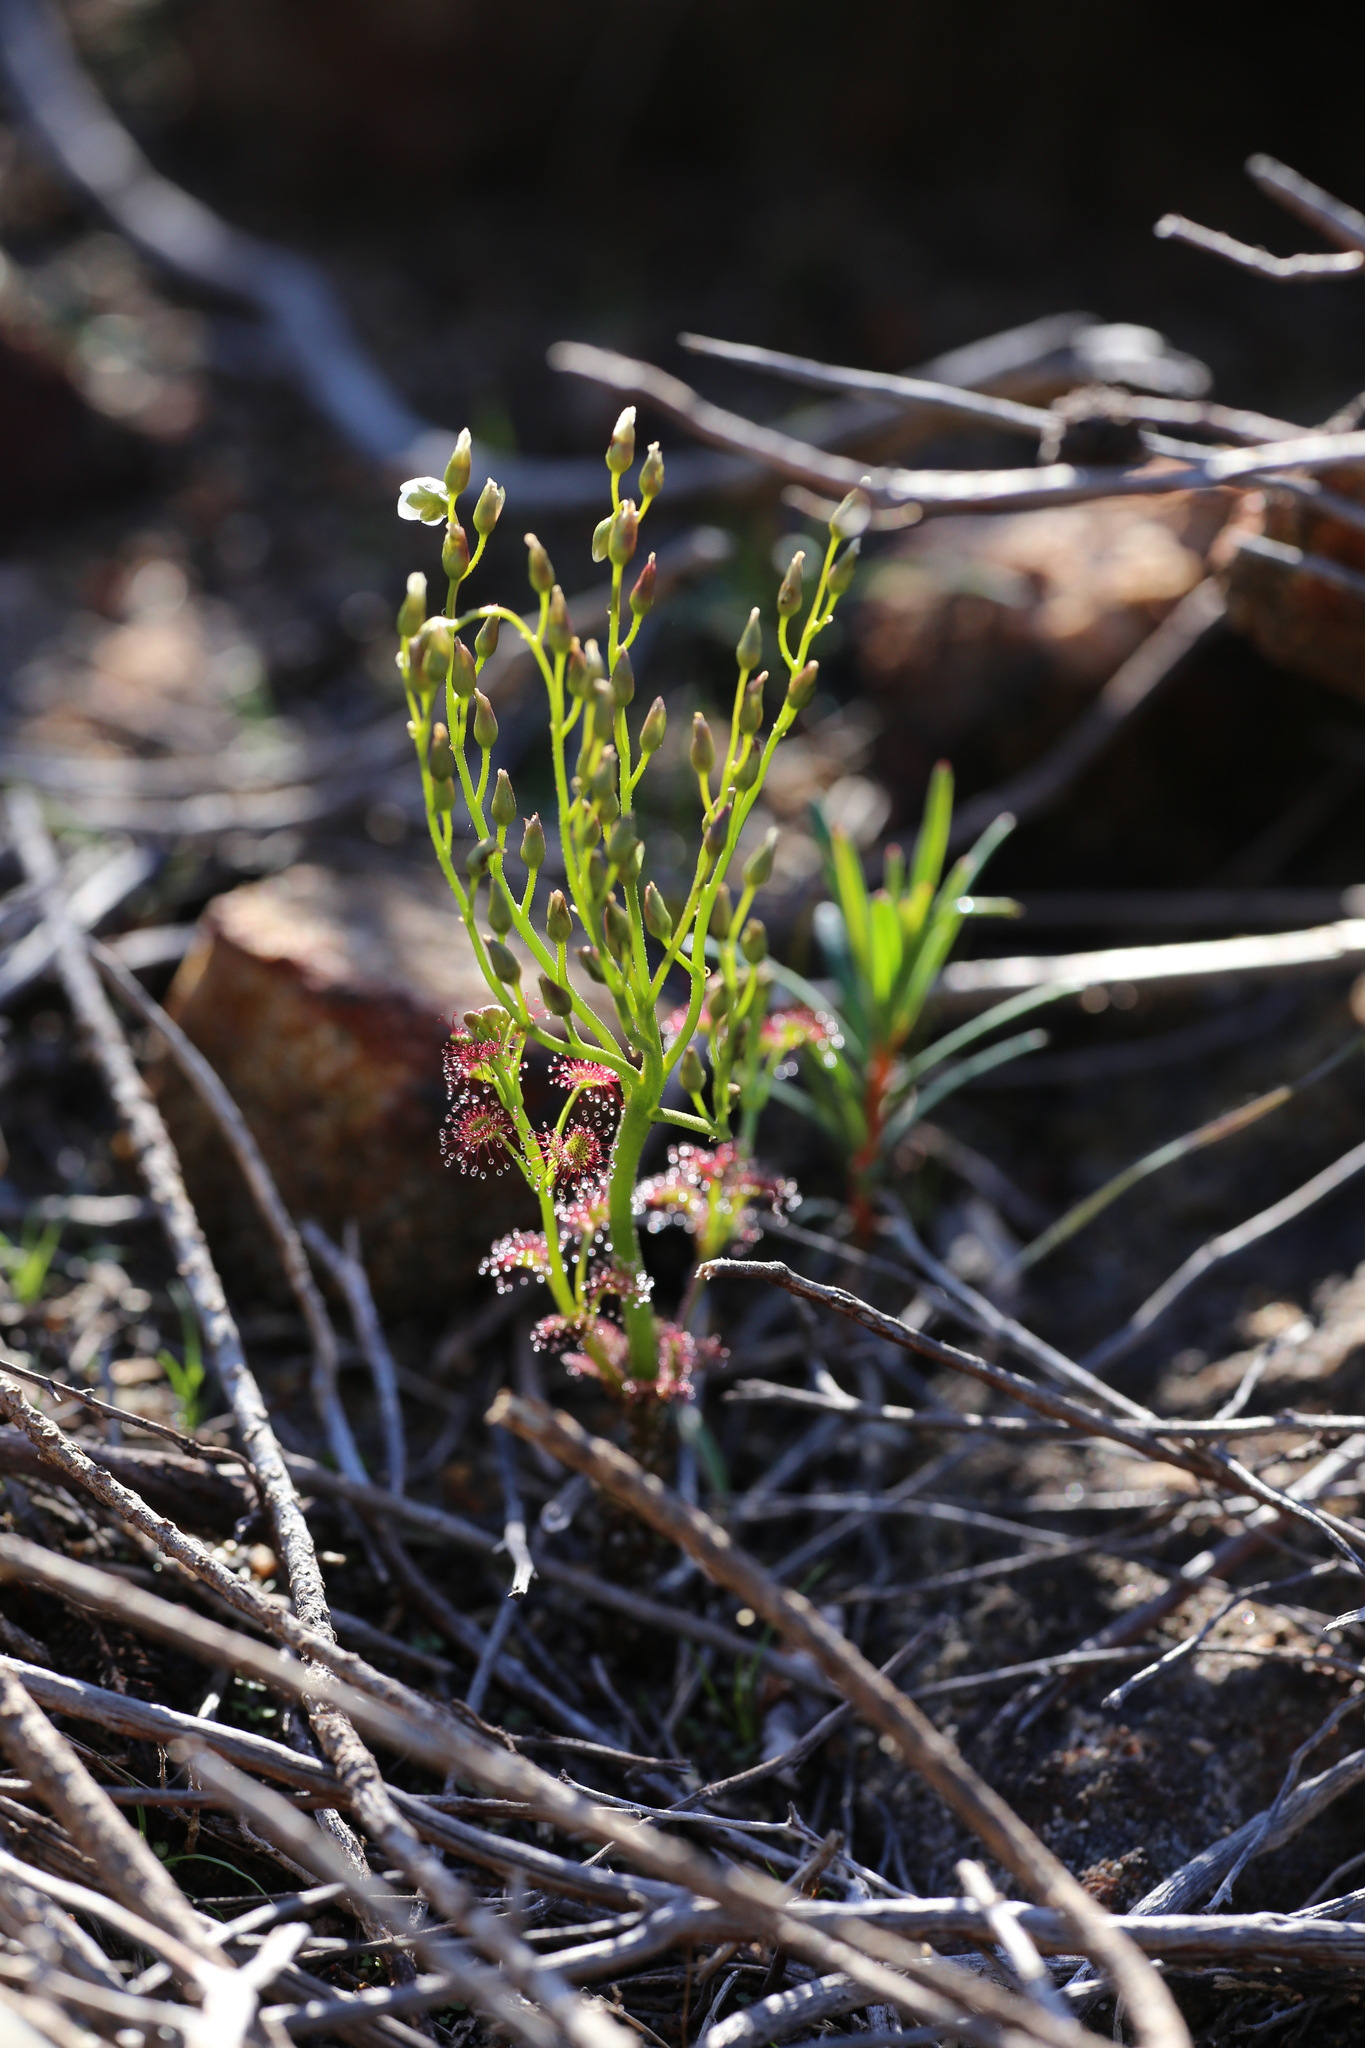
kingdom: Plantae
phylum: Tracheophyta
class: Magnoliopsida
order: Caryophyllales
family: Droseraceae
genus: Drosera
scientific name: Drosera stolonifera
